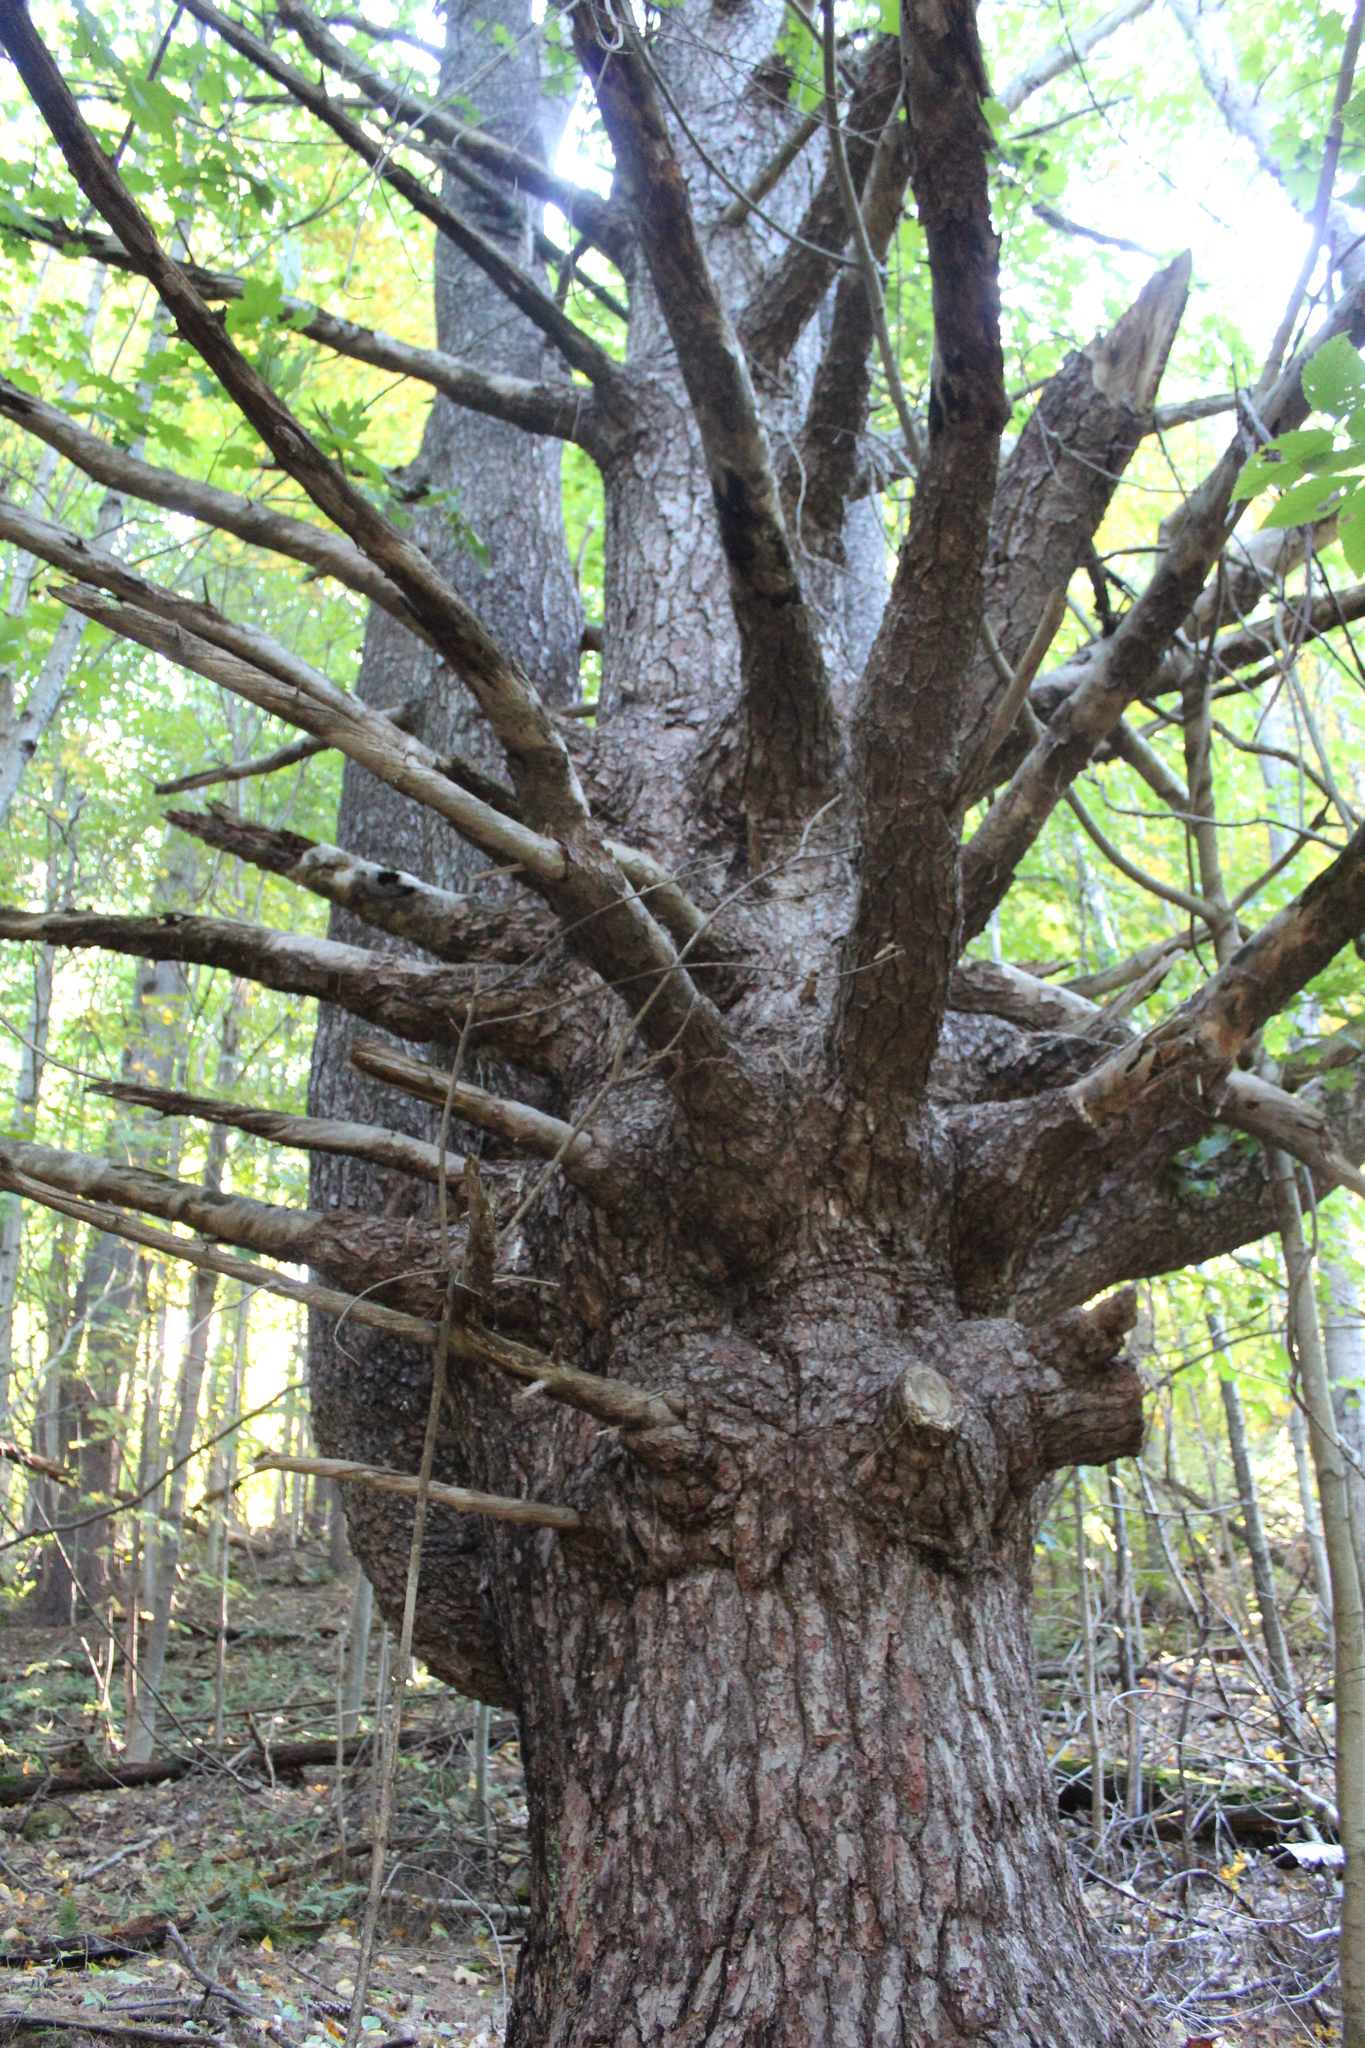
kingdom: Plantae
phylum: Tracheophyta
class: Pinopsida
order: Pinales
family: Pinaceae
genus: Pinus
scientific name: Pinus strobus
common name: Weymouth pine
